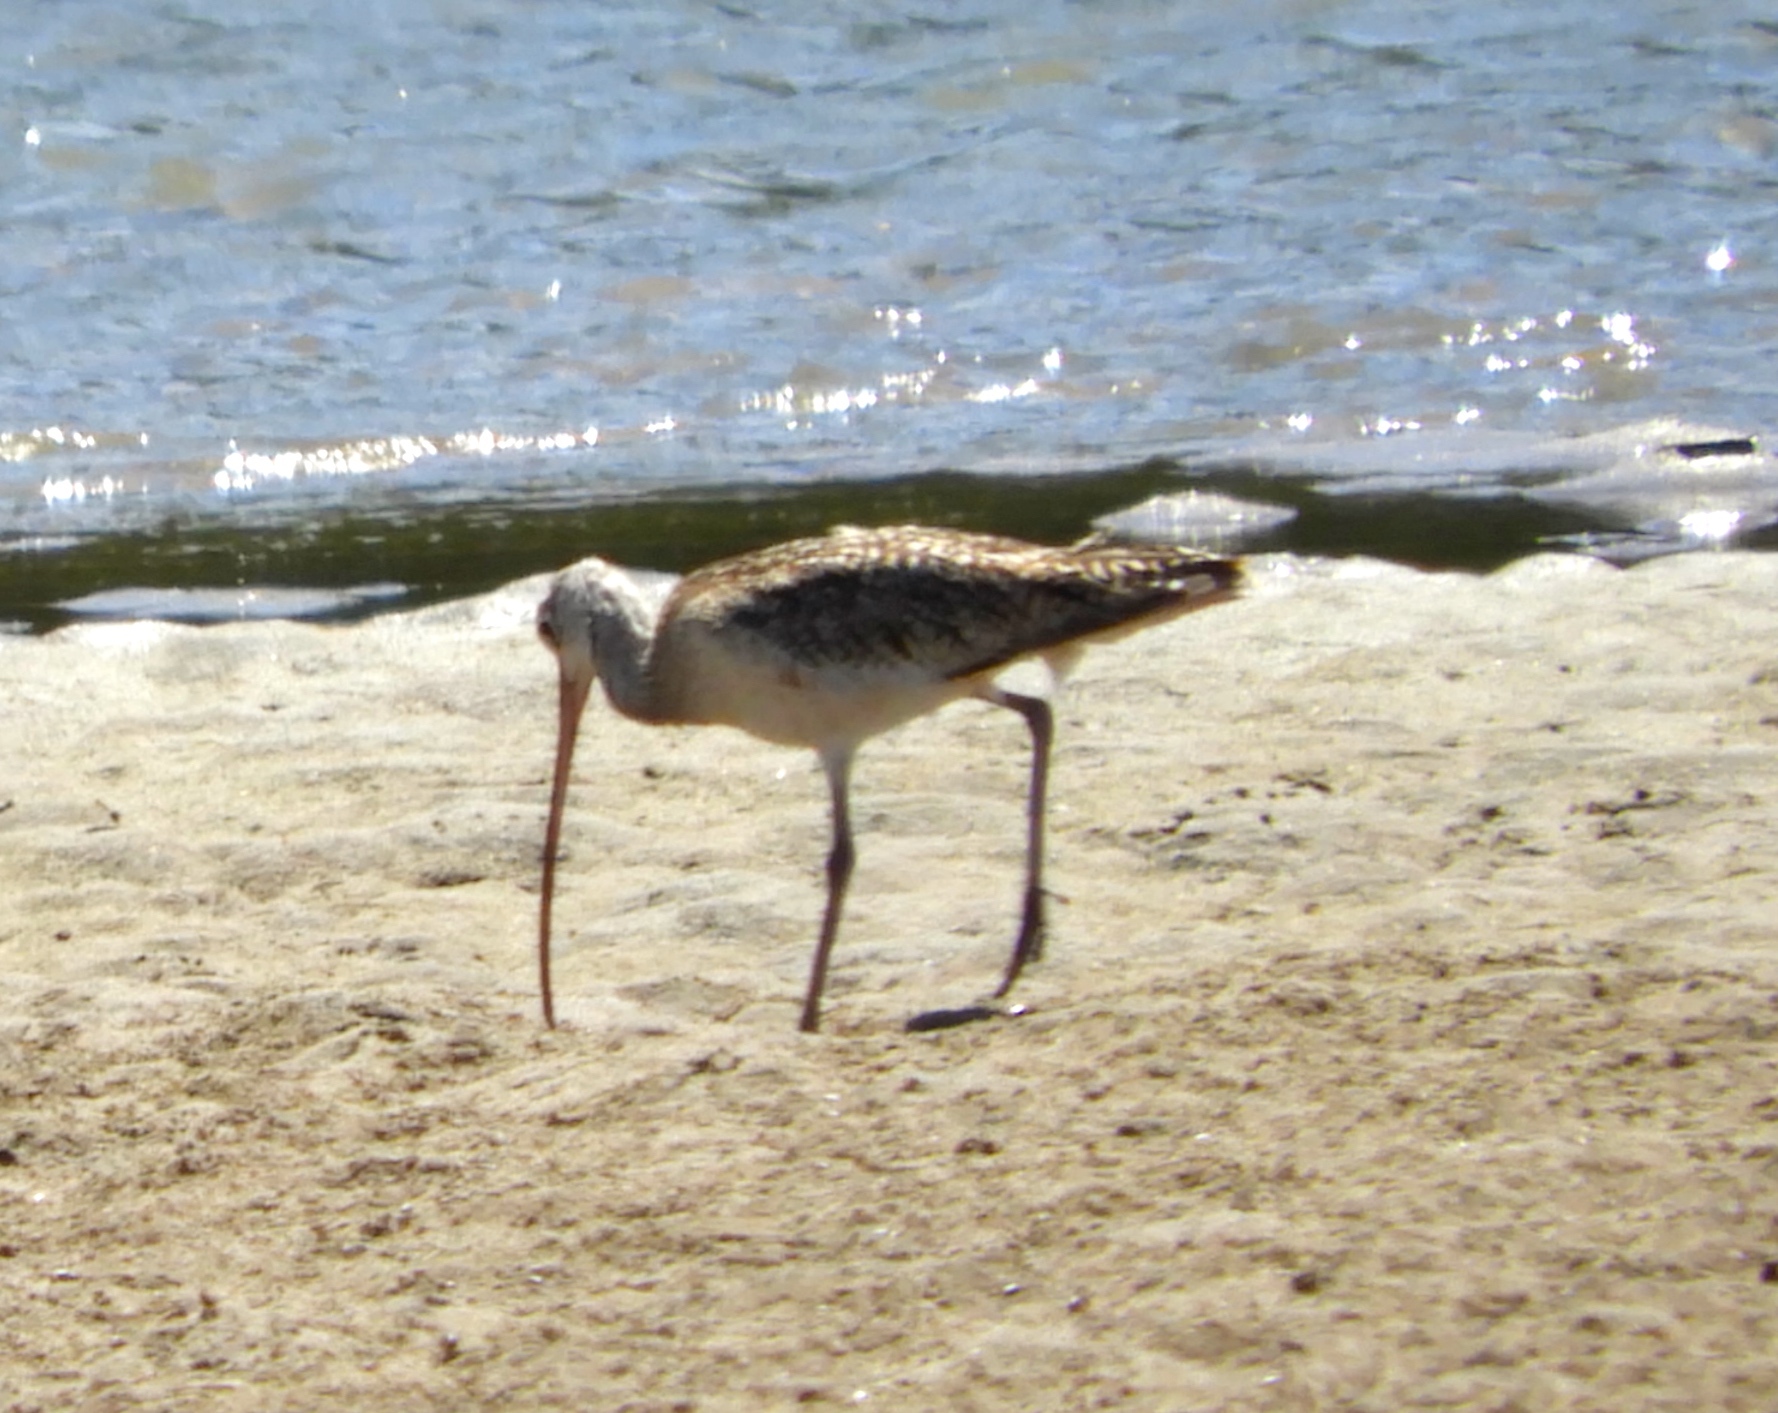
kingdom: Animalia
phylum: Chordata
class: Aves
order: Charadriiformes
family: Scolopacidae
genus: Numenius
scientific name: Numenius americanus
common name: Long-billed curlew
